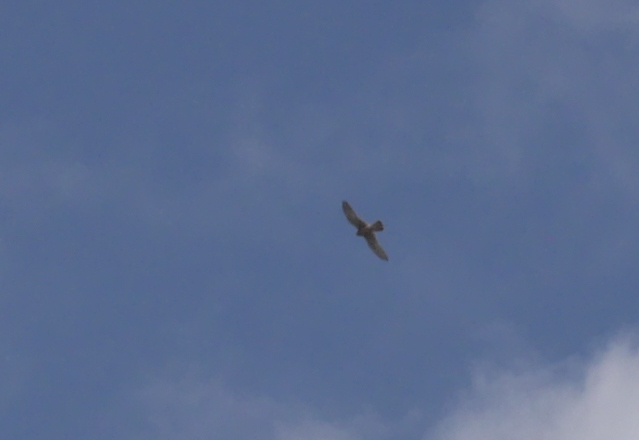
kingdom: Animalia
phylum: Chordata
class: Aves
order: Falconiformes
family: Falconidae
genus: Falco
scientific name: Falco tinnunculus
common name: Common kestrel
